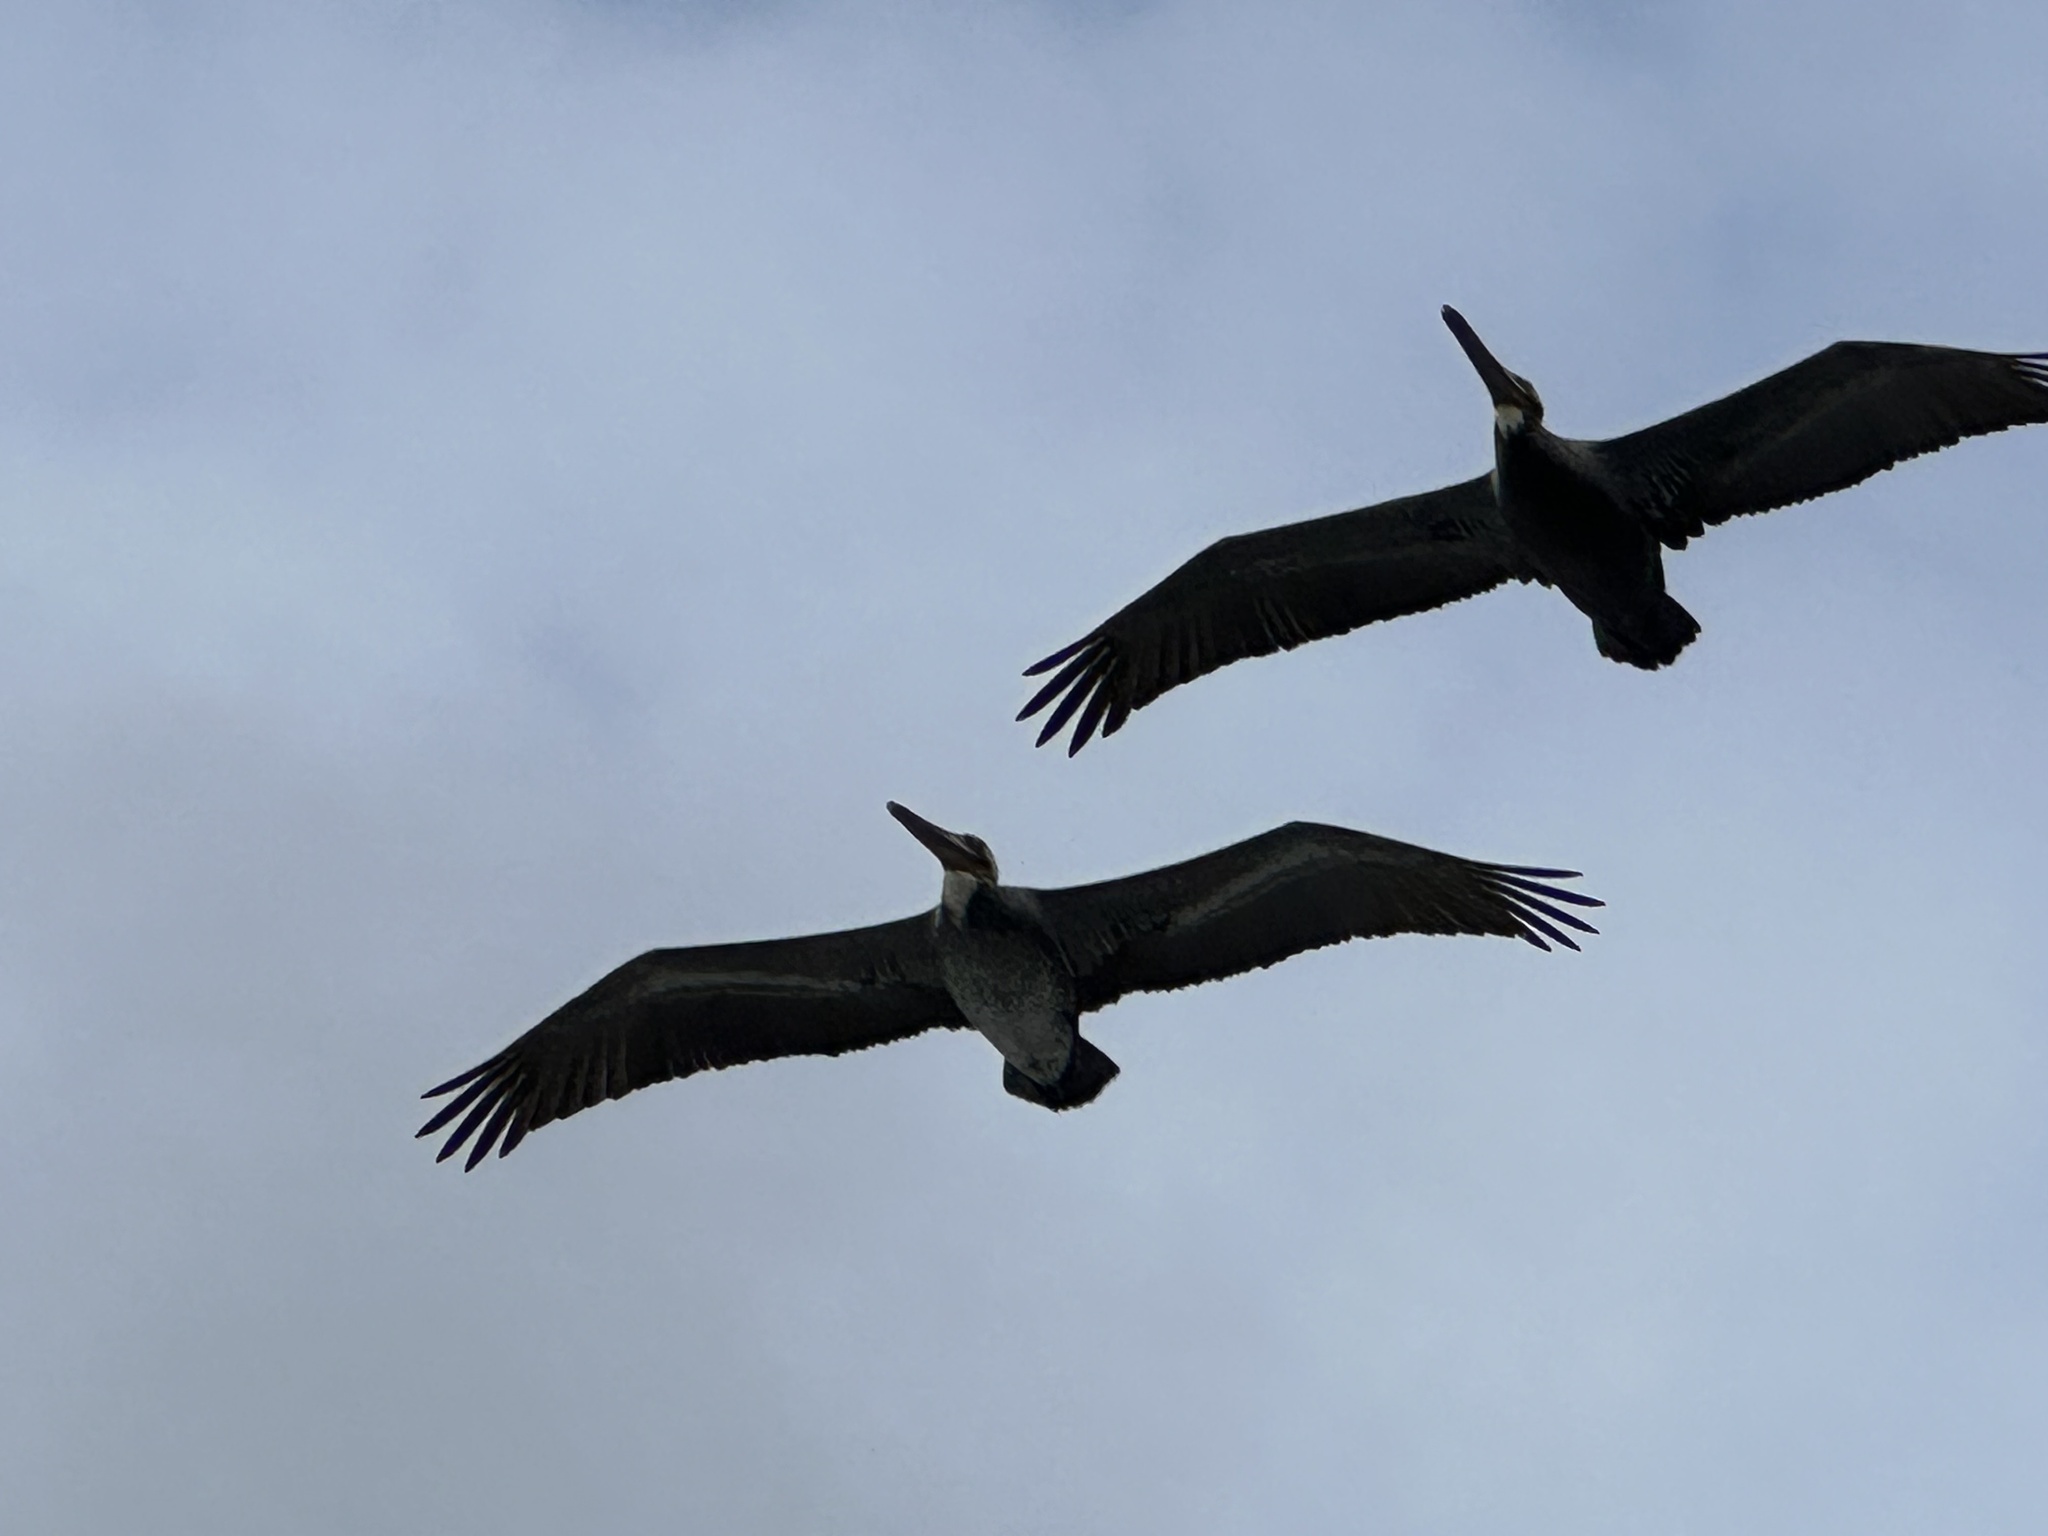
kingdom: Animalia
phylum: Chordata
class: Aves
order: Pelecaniformes
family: Pelecanidae
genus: Pelecanus
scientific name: Pelecanus occidentalis
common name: Brown pelican
